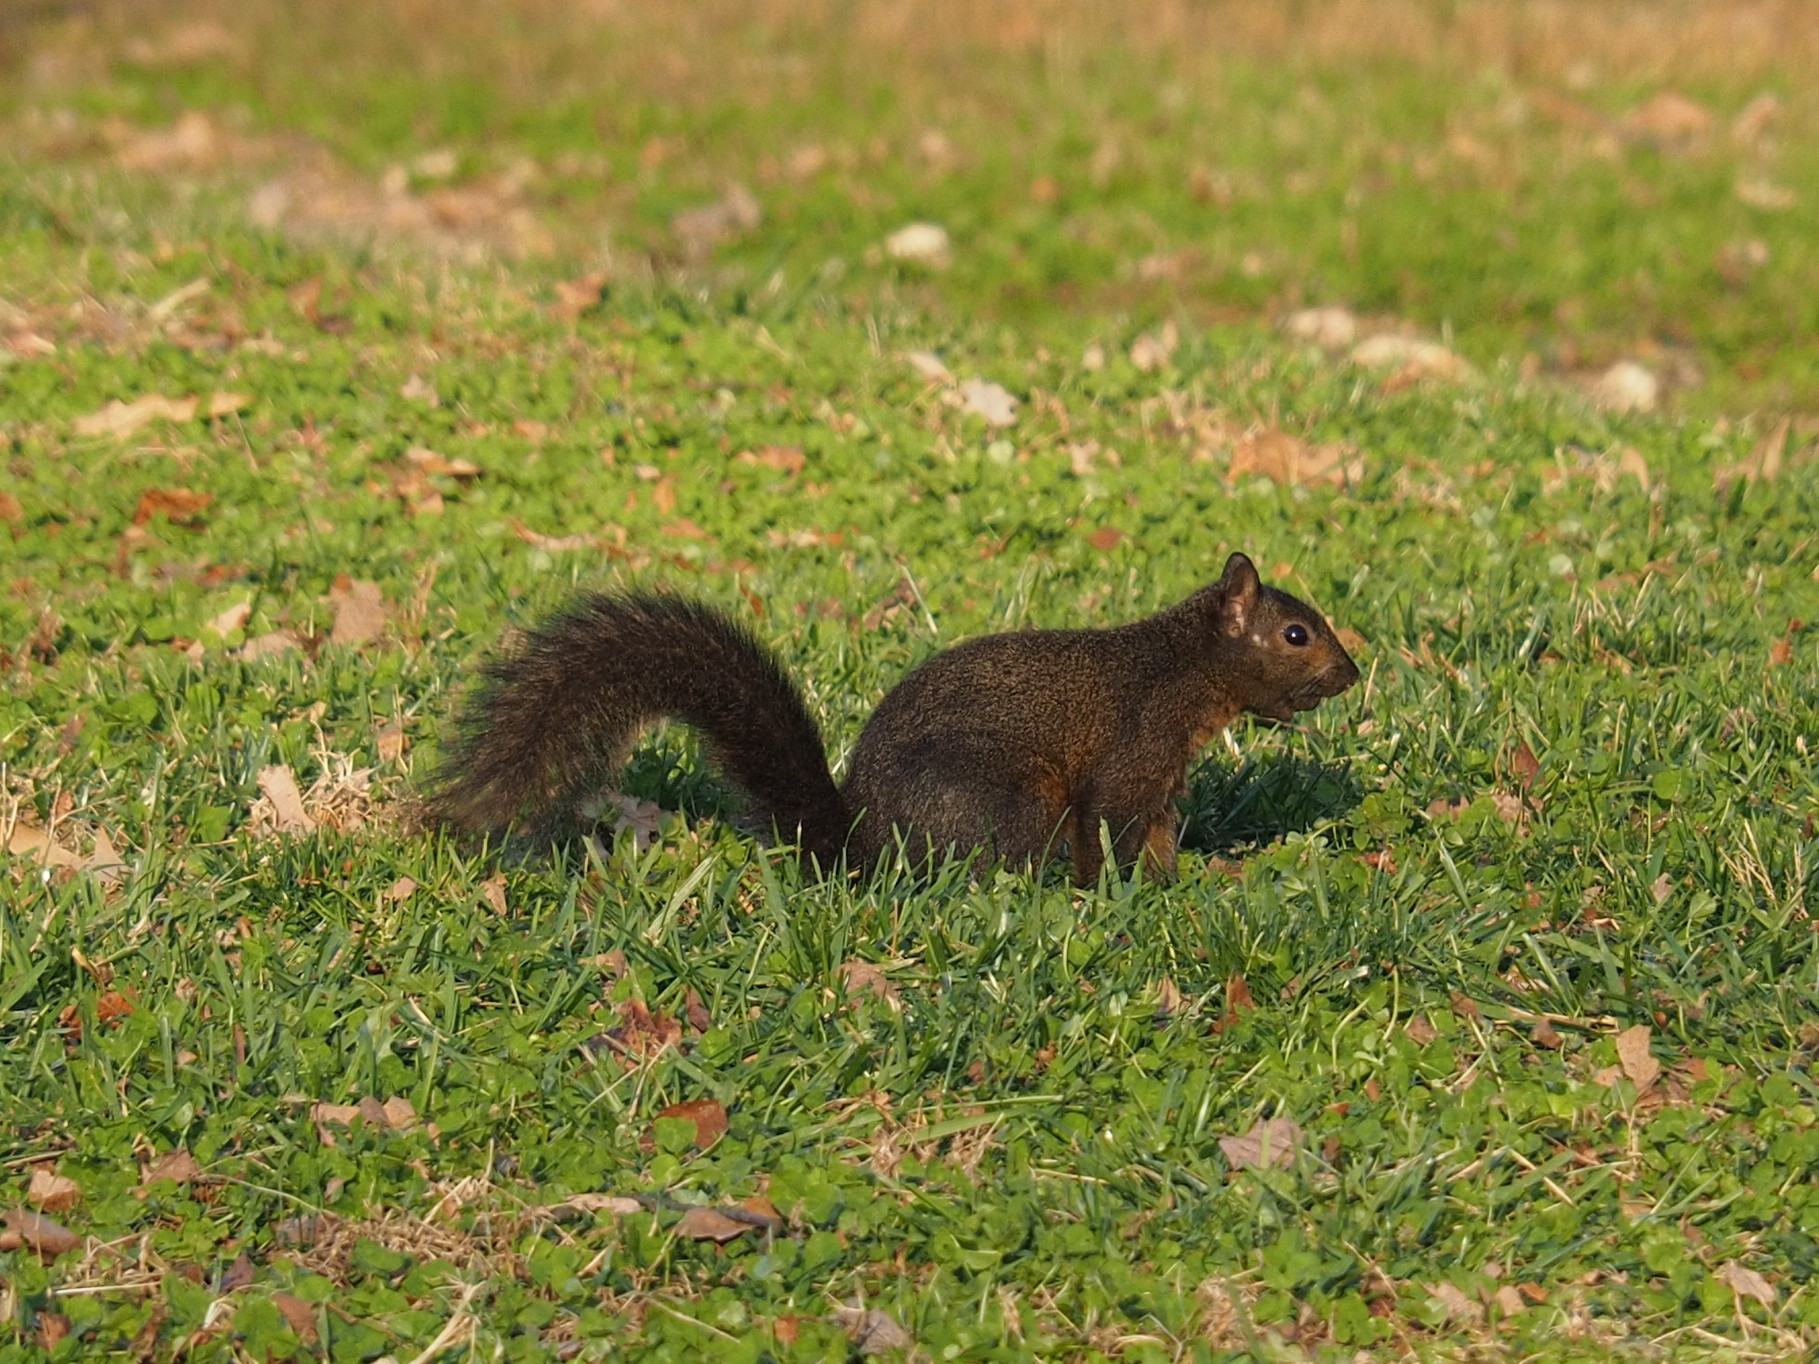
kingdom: Animalia
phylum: Chordata
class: Mammalia
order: Rodentia
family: Sciuridae
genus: Sciurus
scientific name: Sciurus carolinensis
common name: Eastern gray squirrel
